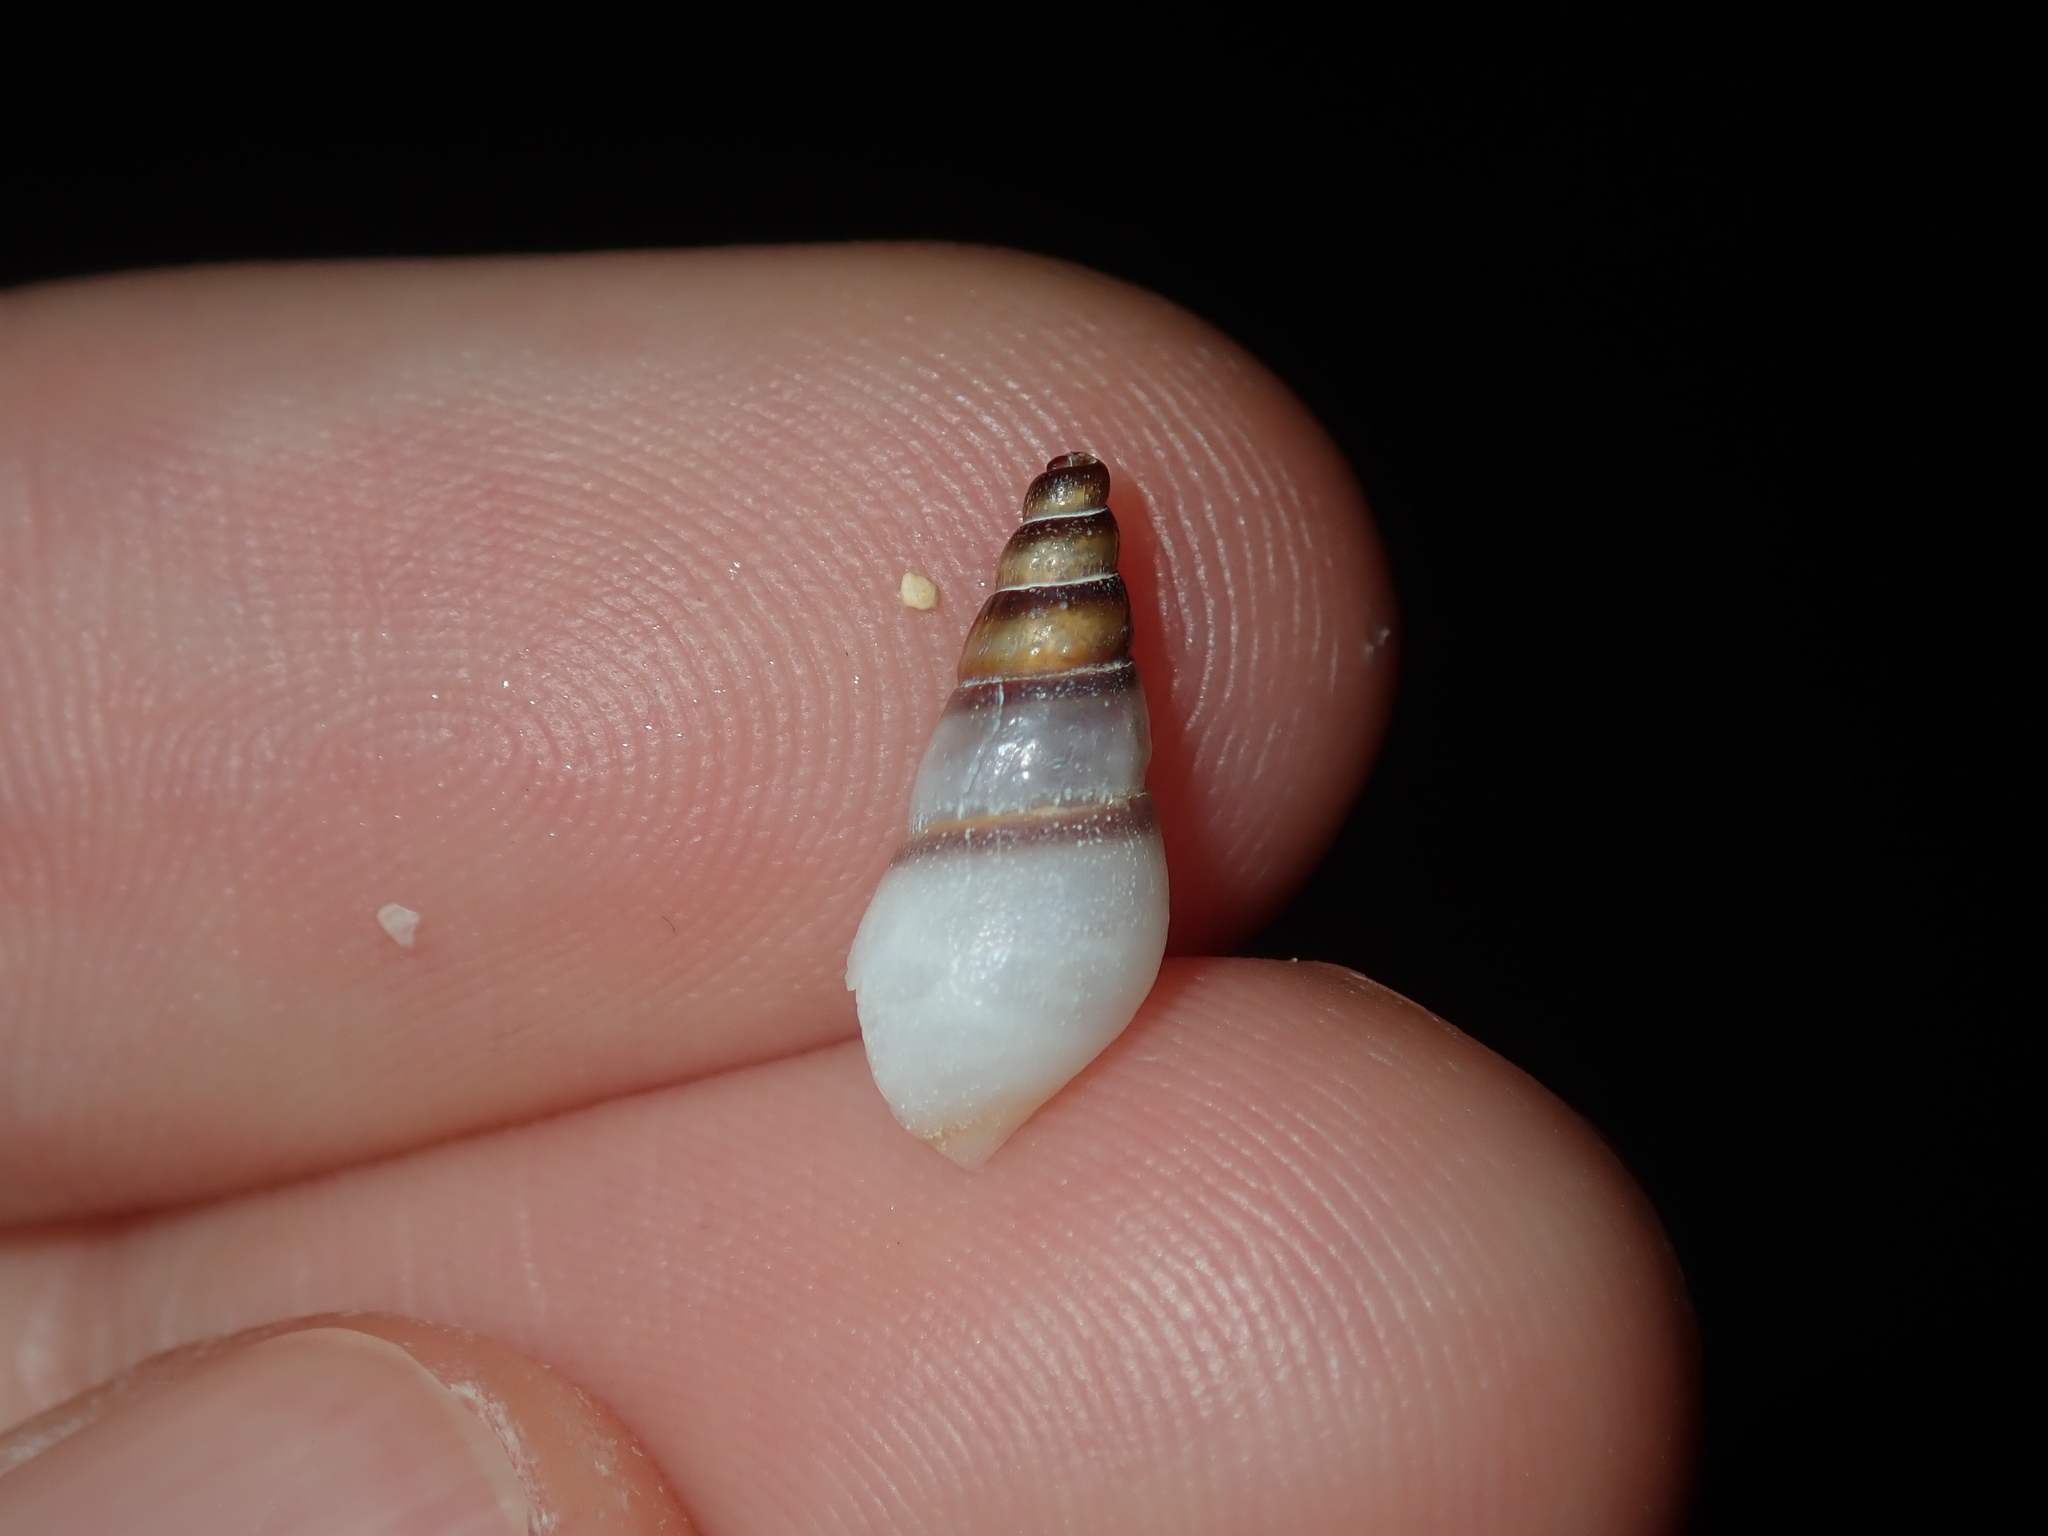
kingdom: Animalia
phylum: Mollusca
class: Gastropoda
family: Thiaridae
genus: Melanoides
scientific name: Melanoides tuberculata
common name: Red-rim melania
